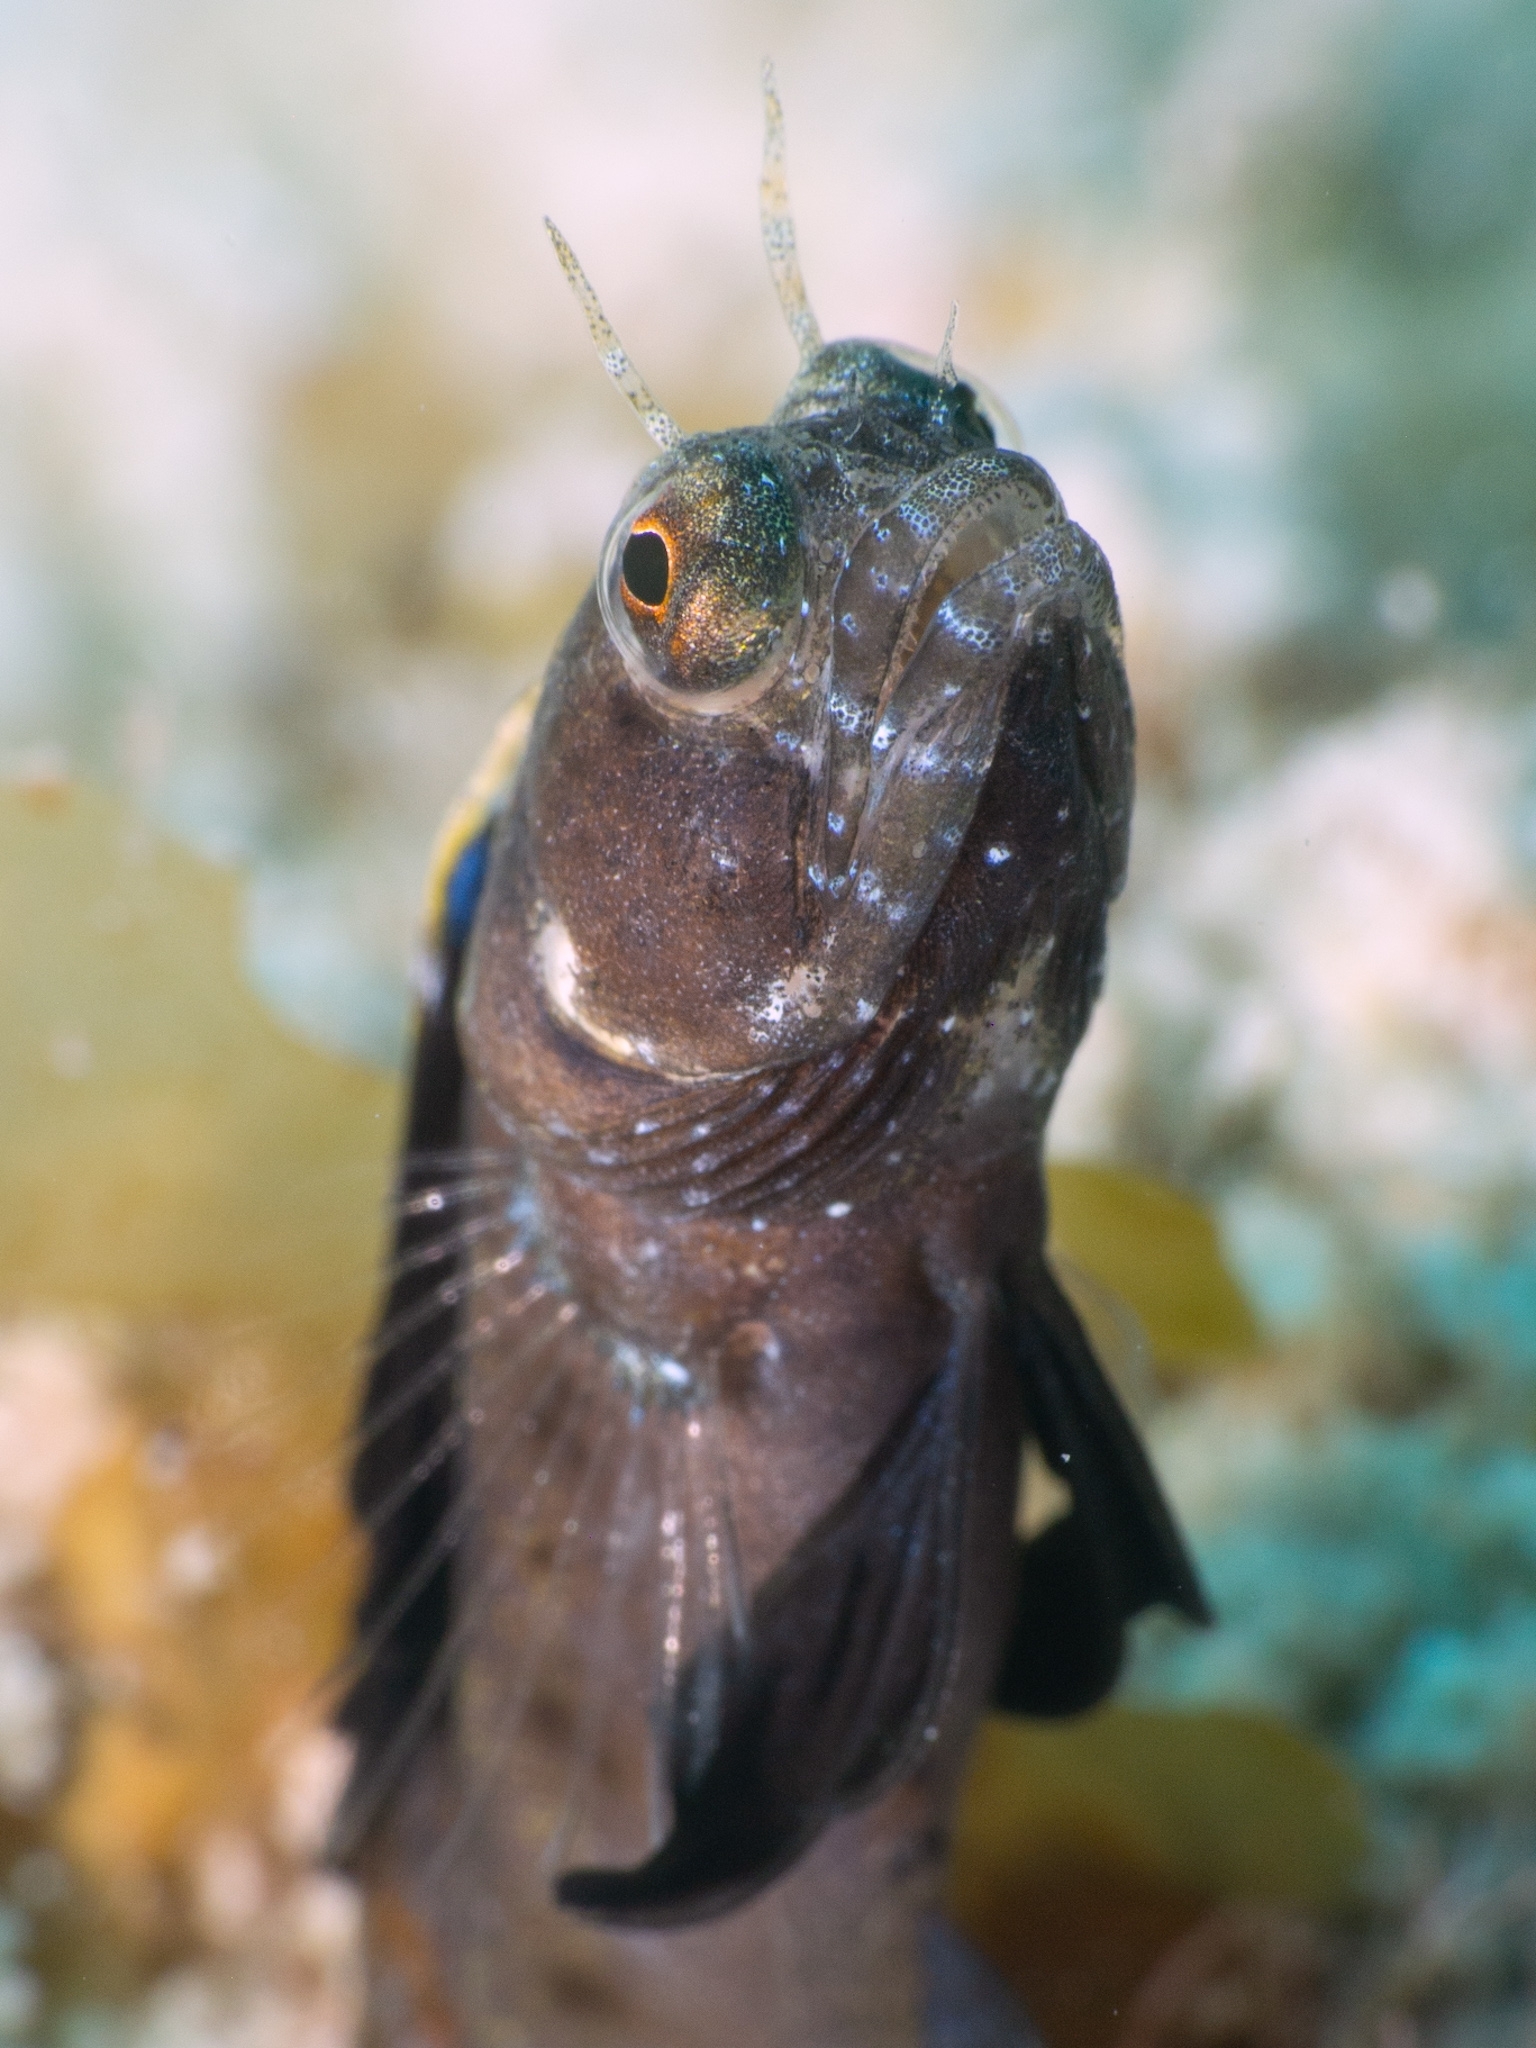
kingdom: Animalia
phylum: Chordata
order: Perciformes
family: Chaenopsidae
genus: Emblemaria
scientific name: Emblemaria pandionis
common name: Sailfin blenny
